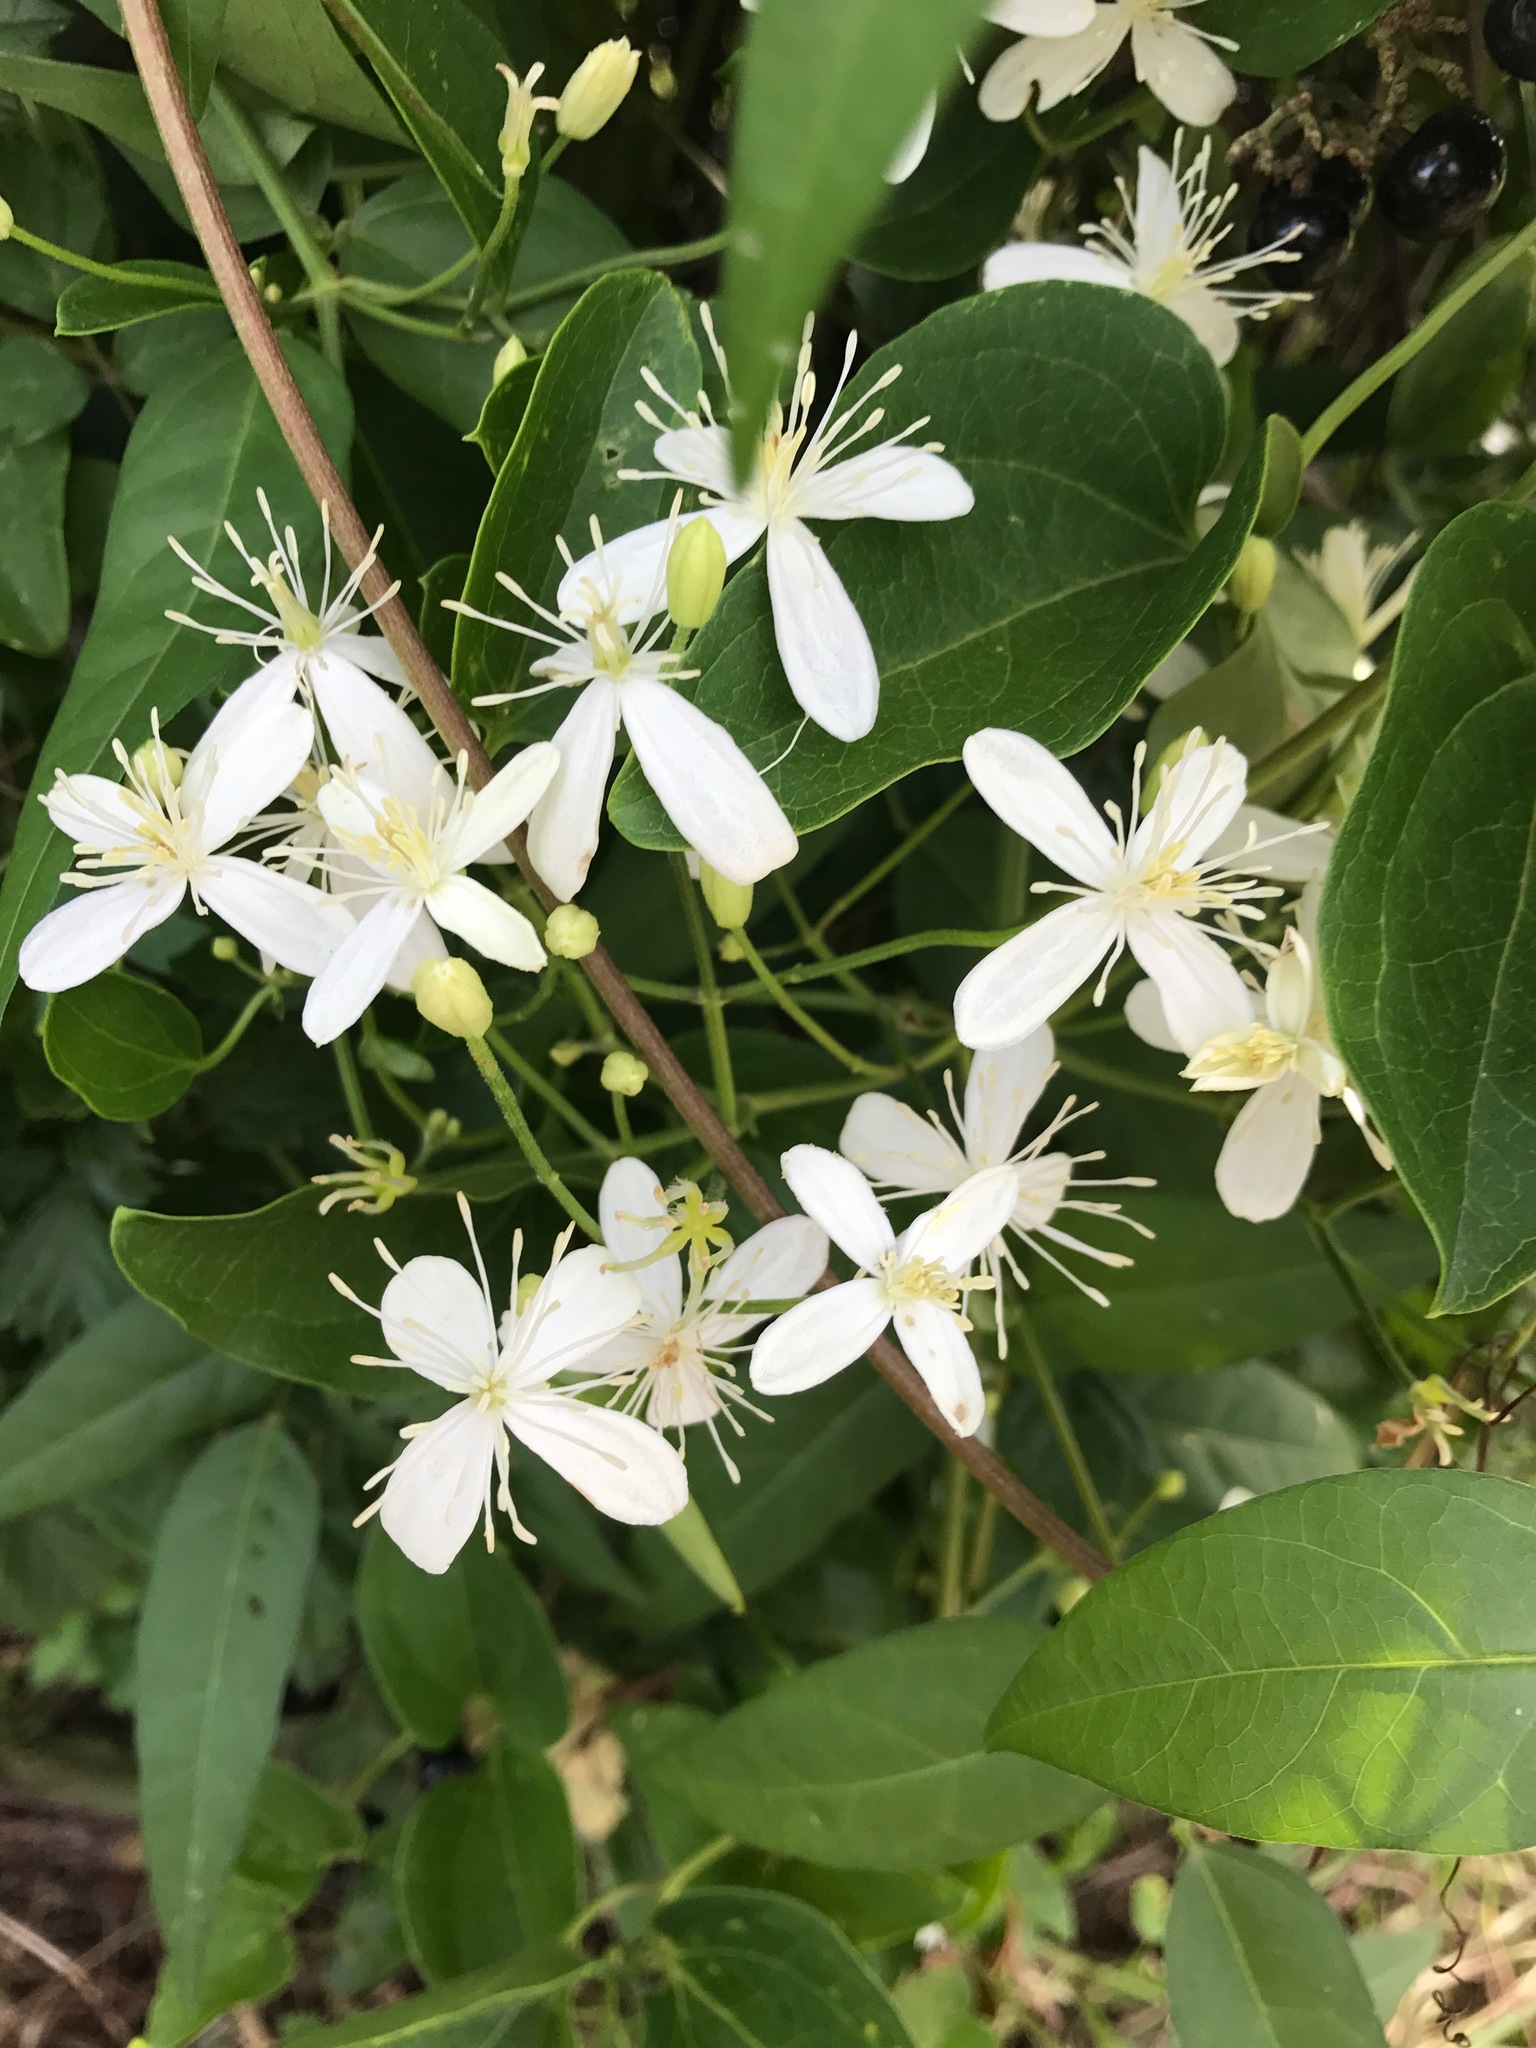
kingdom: Plantae
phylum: Tracheophyta
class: Magnoliopsida
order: Ranunculales
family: Ranunculaceae
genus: Clematis
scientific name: Clematis terniflora
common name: Sweet autumn clematis
